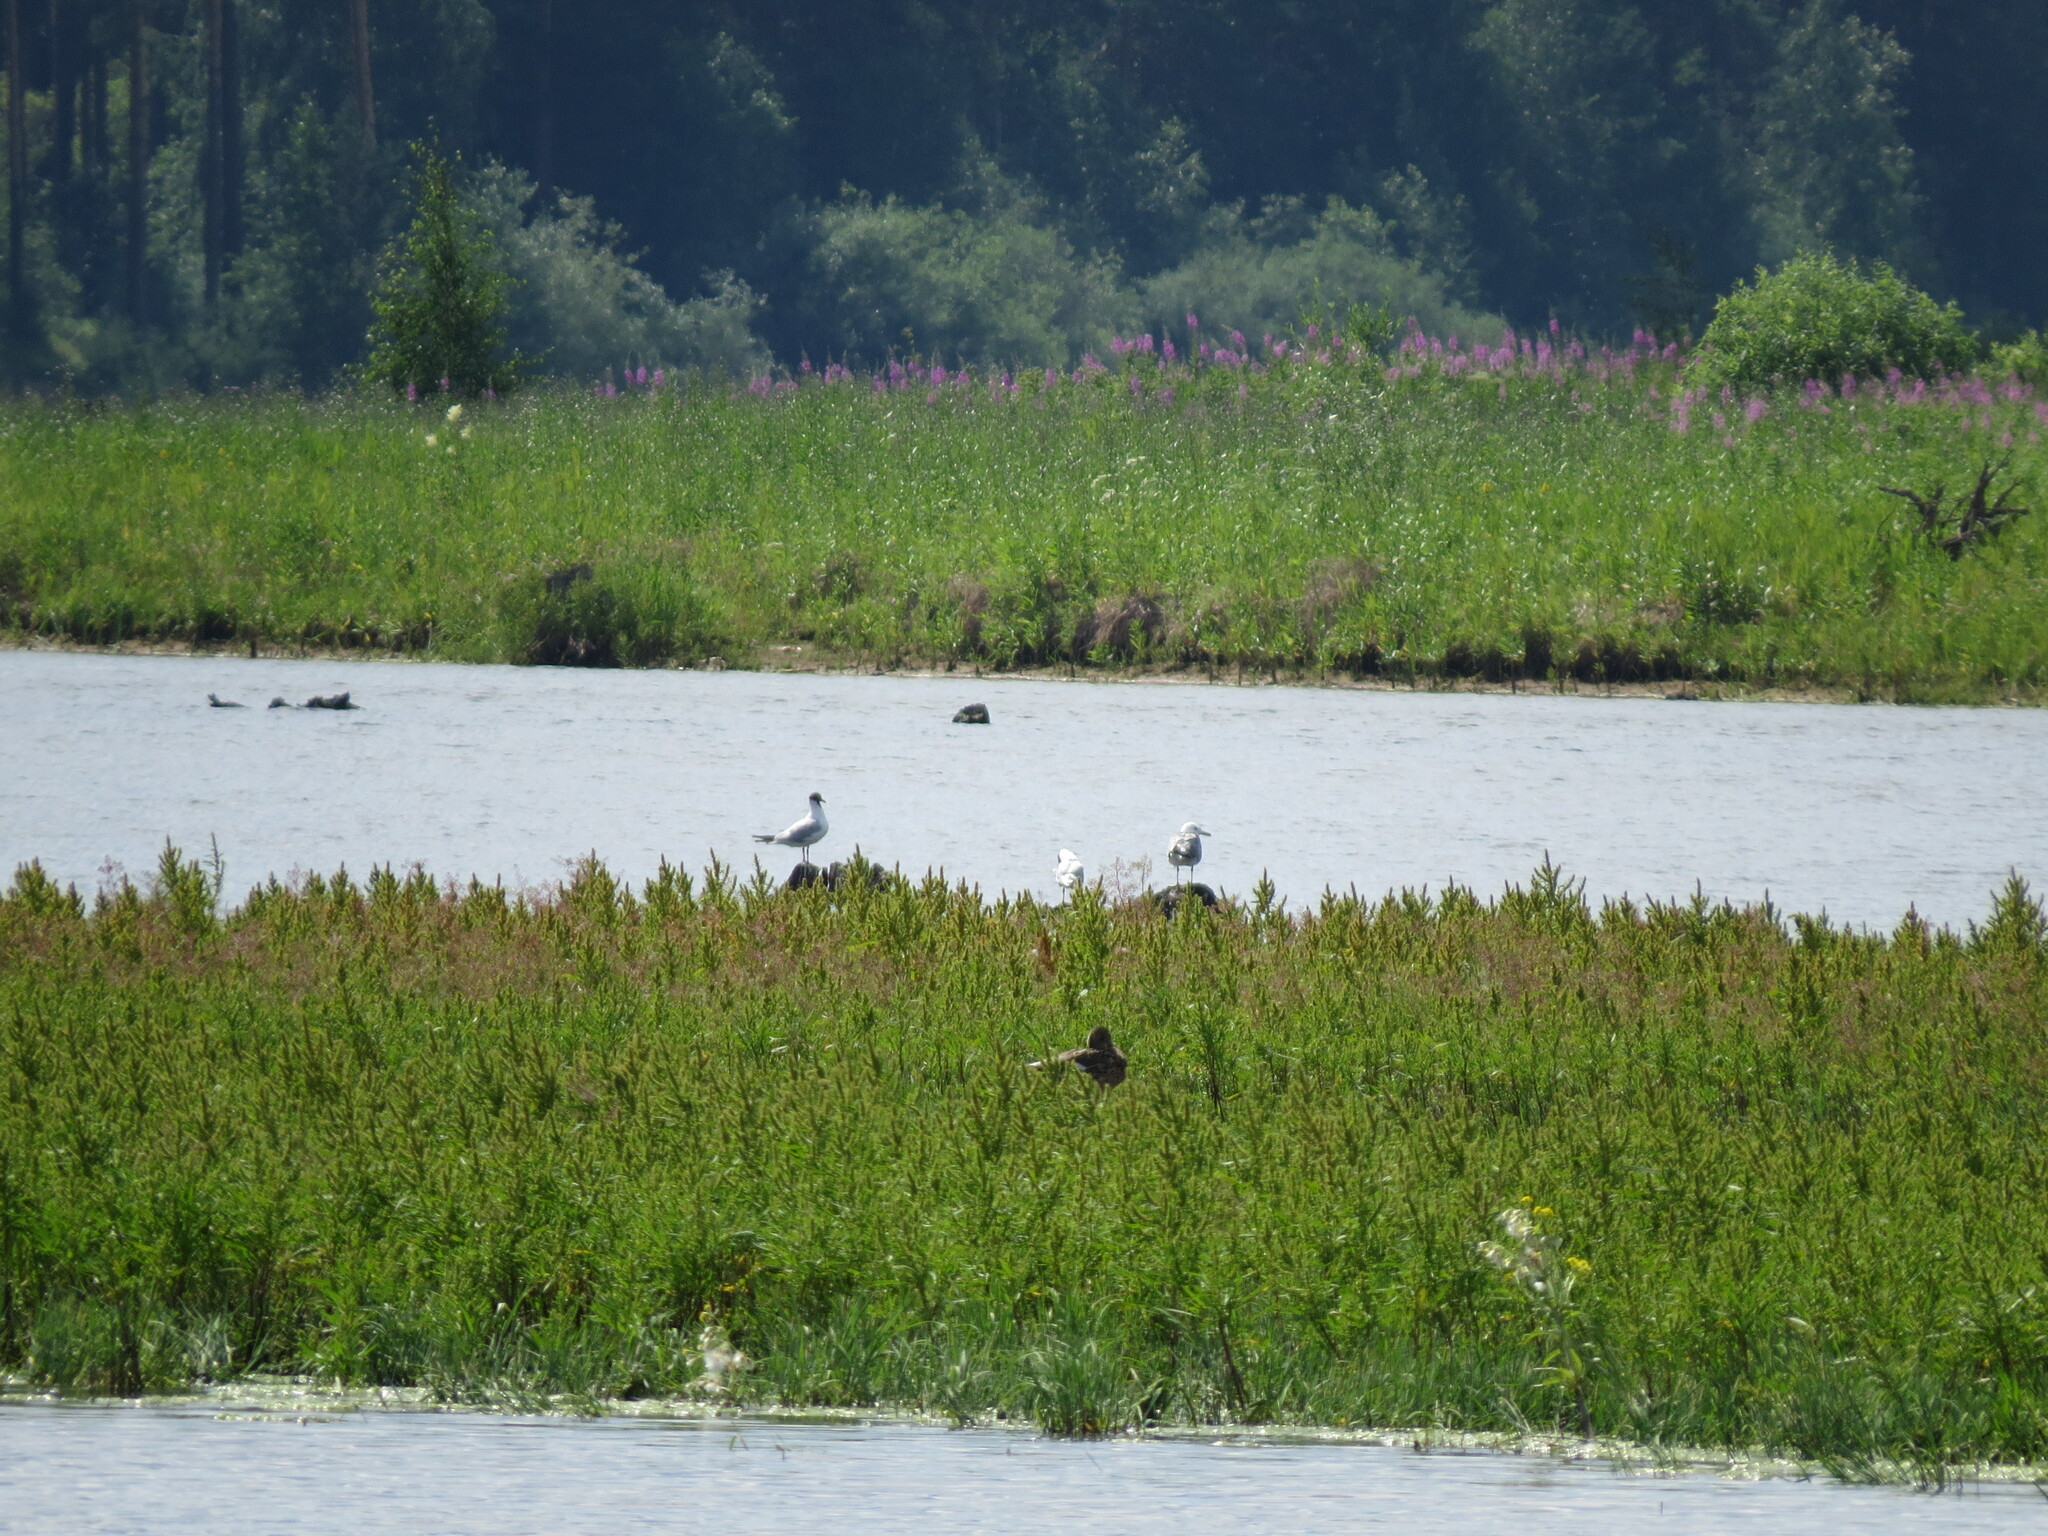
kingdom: Animalia
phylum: Chordata
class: Aves
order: Charadriiformes
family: Laridae
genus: Chroicocephalus
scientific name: Chroicocephalus ridibundus
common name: Black-headed gull
